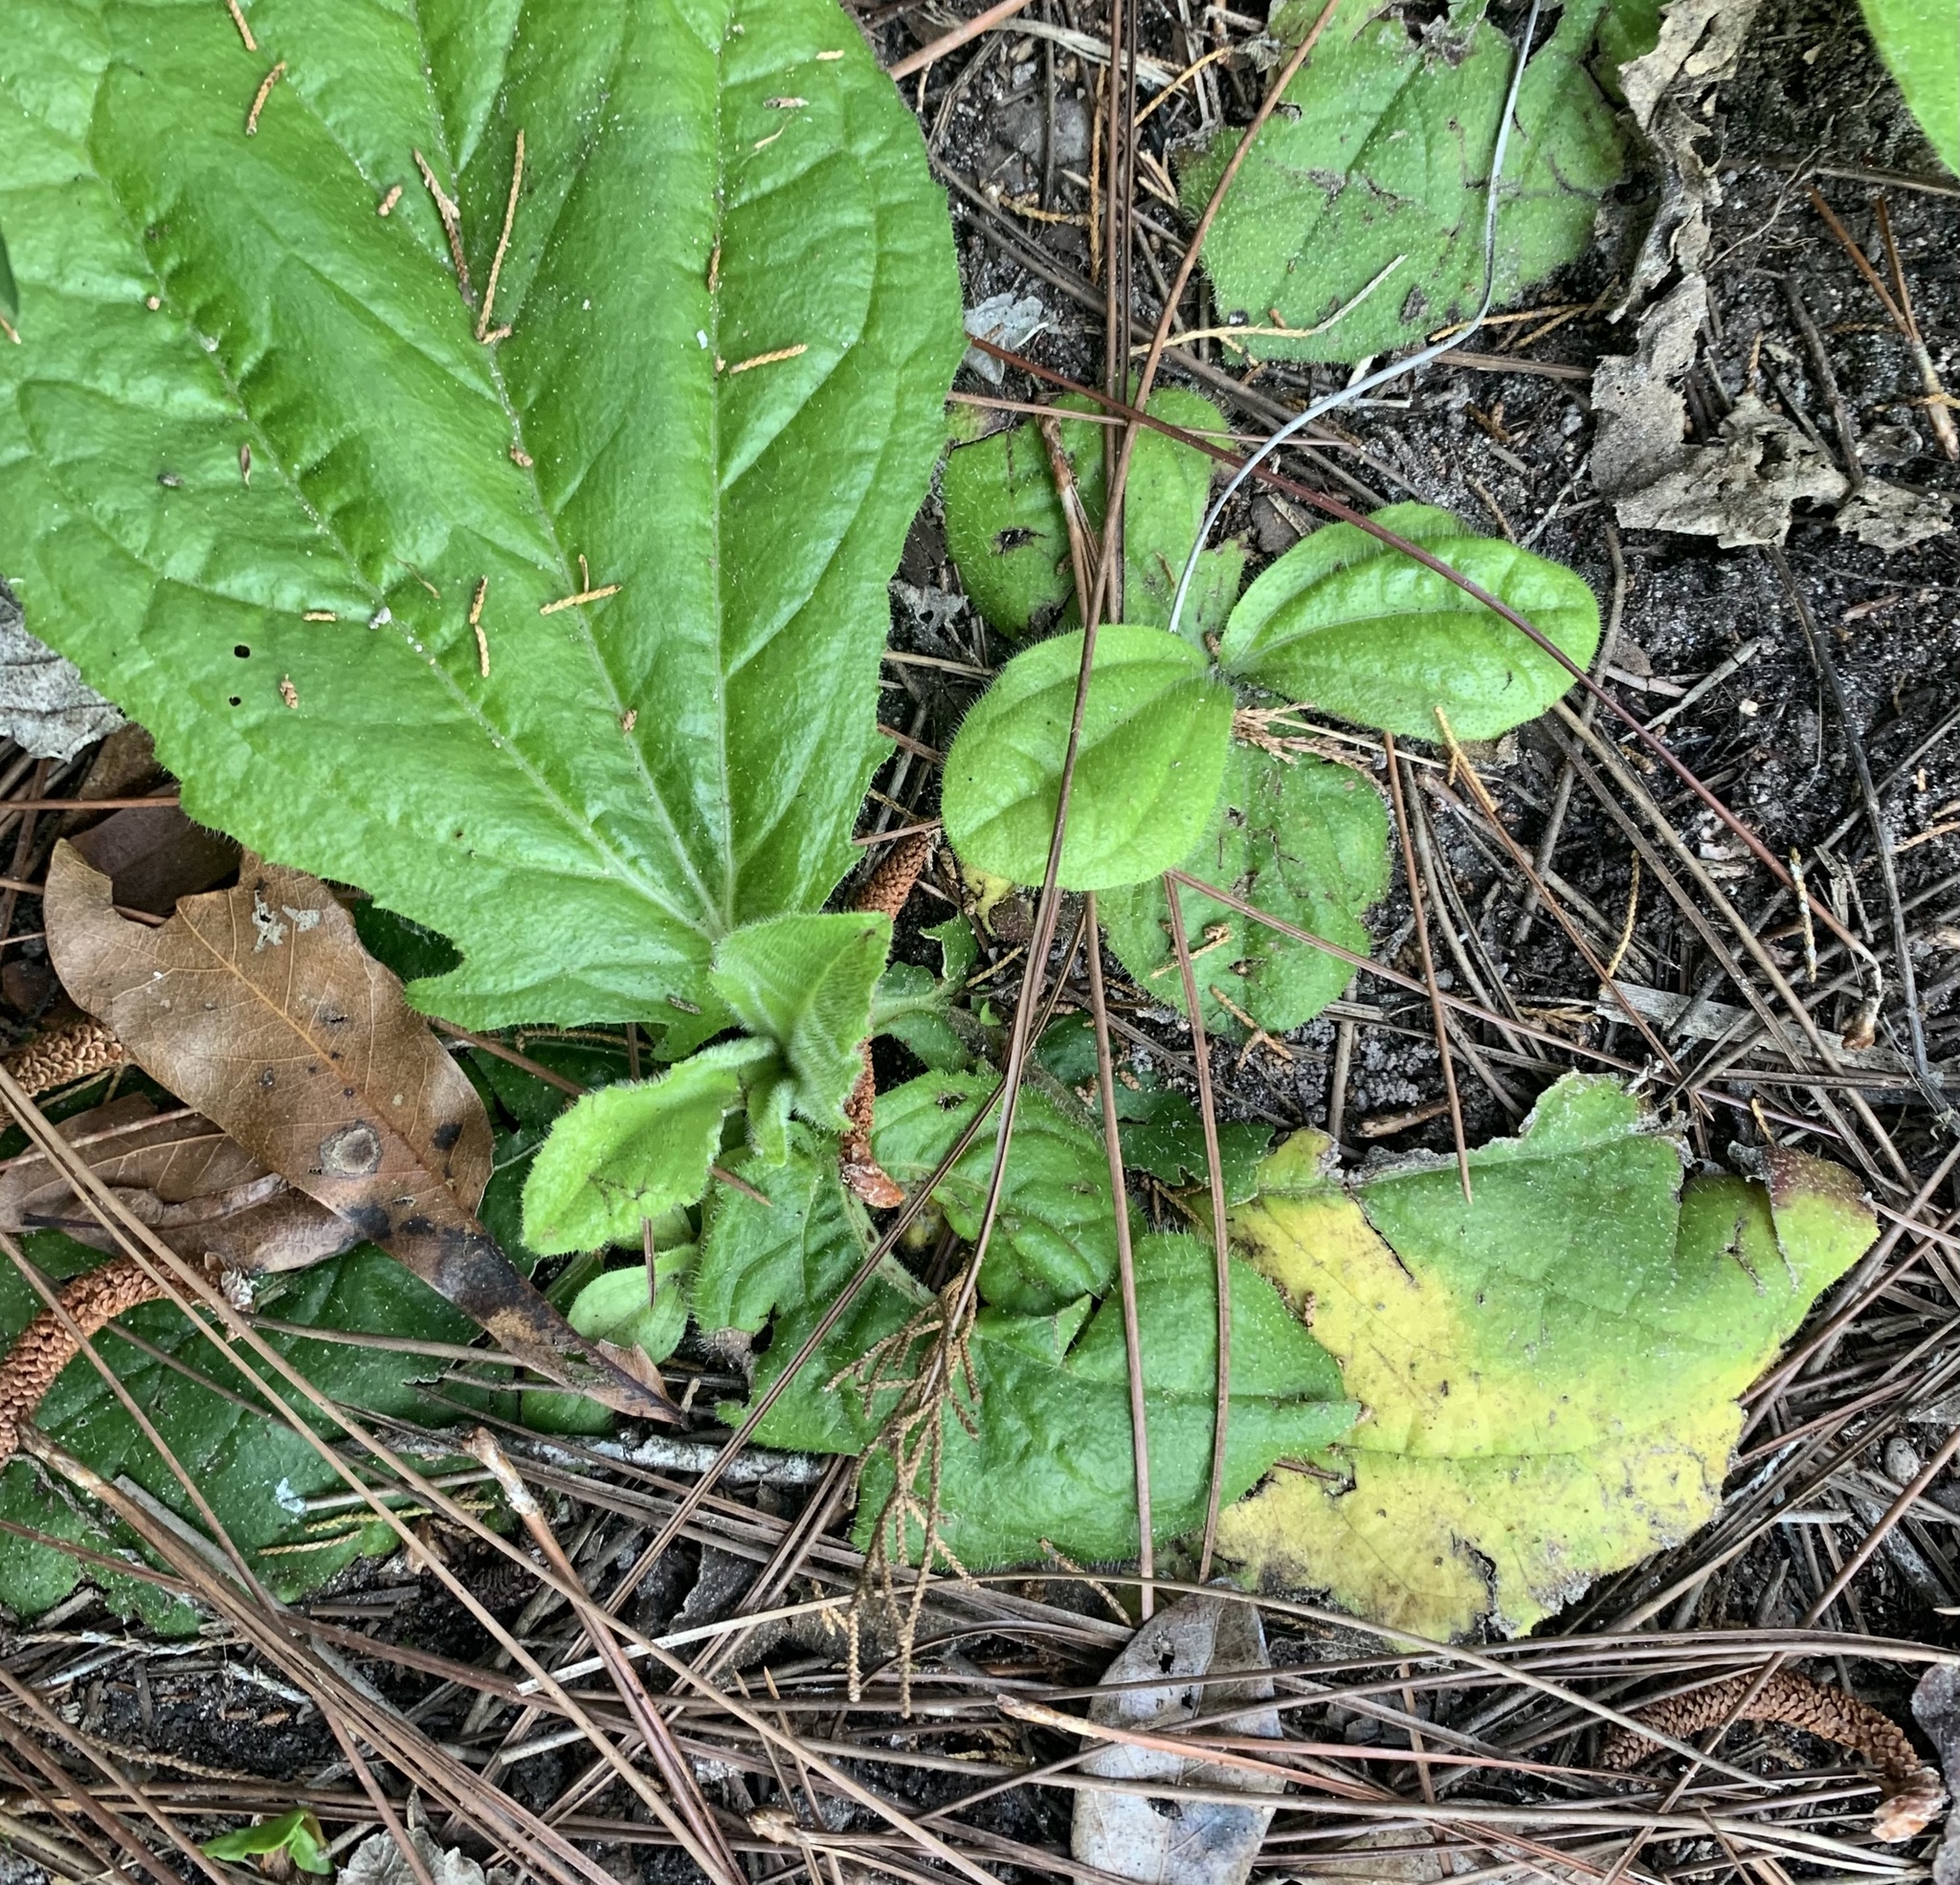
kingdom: Plantae
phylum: Tracheophyta
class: Magnoliopsida
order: Asterales
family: Asteraceae
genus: Helianthus
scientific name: Helianthus radula
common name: Pineland sunflower
